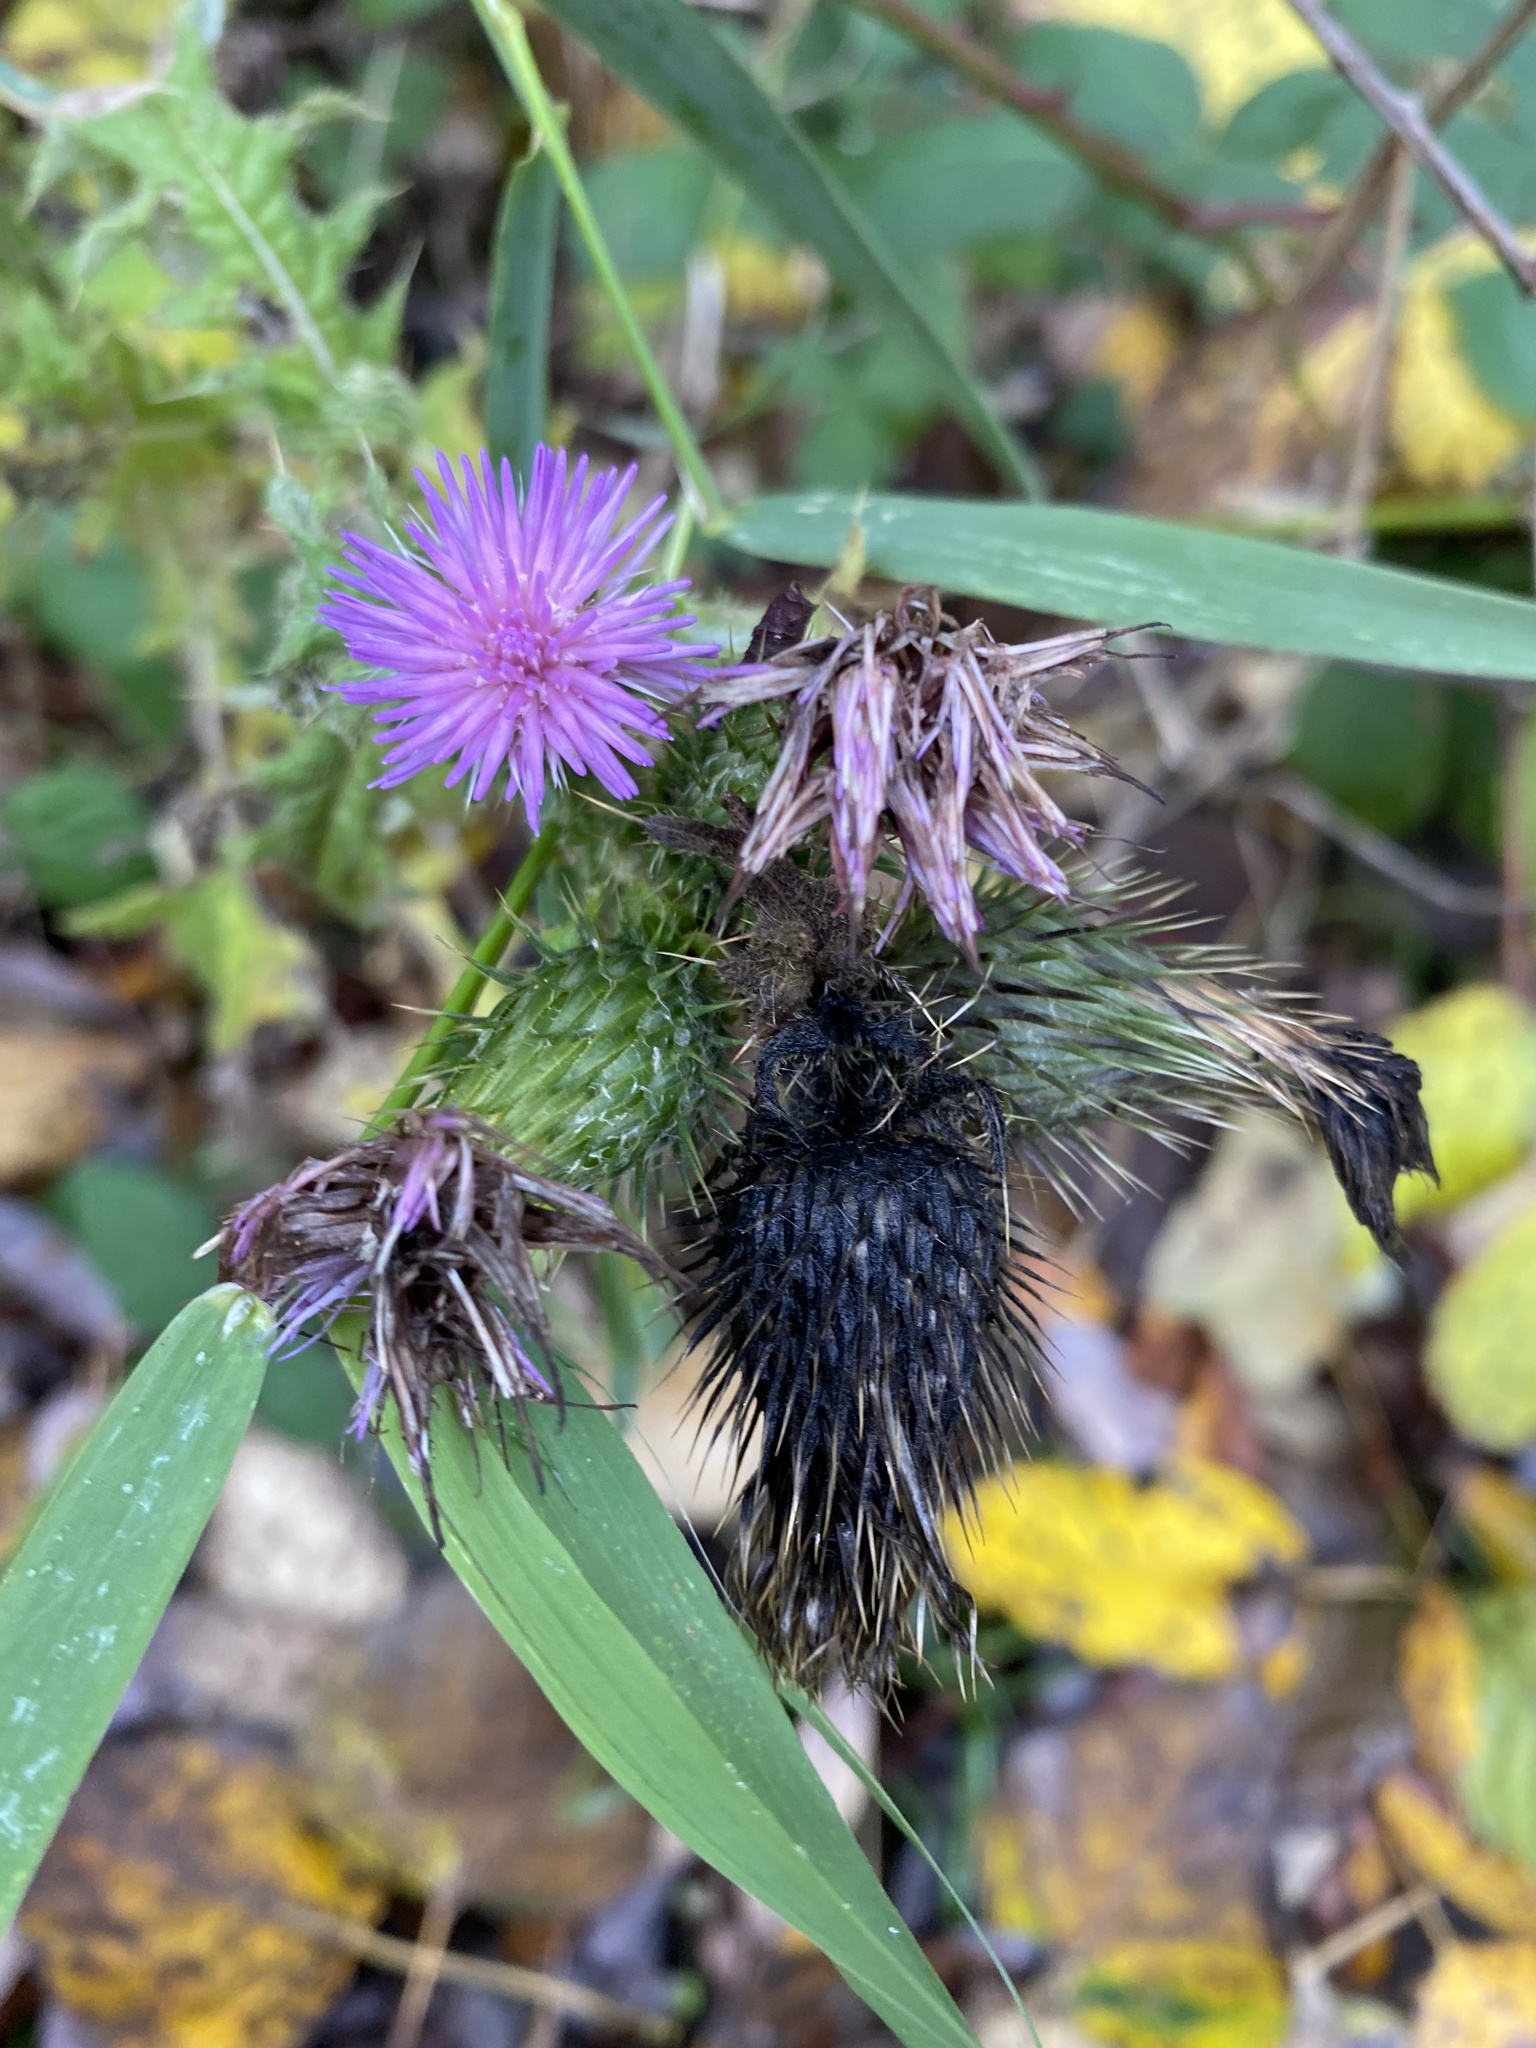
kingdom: Plantae
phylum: Tracheophyta
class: Magnoliopsida
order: Asterales
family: Asteraceae
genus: Cirsium
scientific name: Cirsium arvense
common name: Creeping thistle
